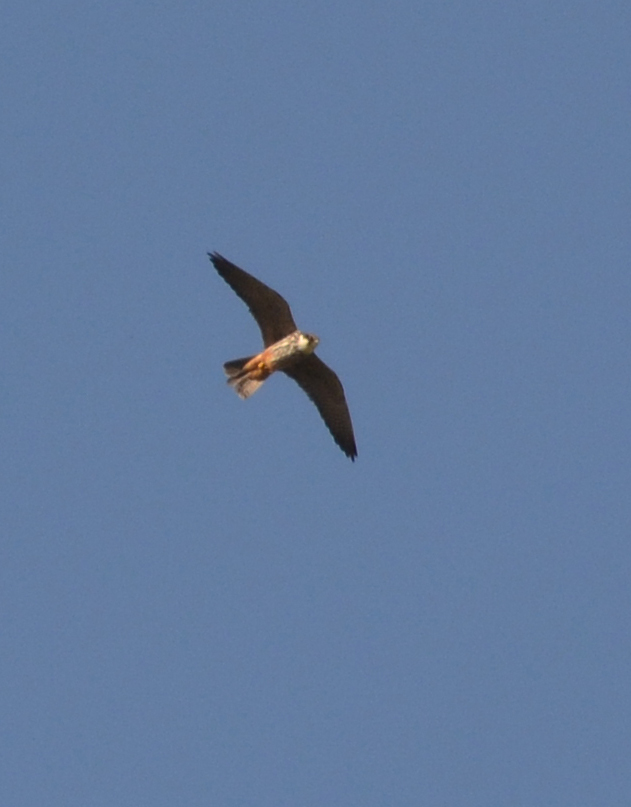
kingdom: Animalia
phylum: Chordata
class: Aves
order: Falconiformes
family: Falconidae
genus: Falco
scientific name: Falco subbuteo
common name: Eurasian hobby
